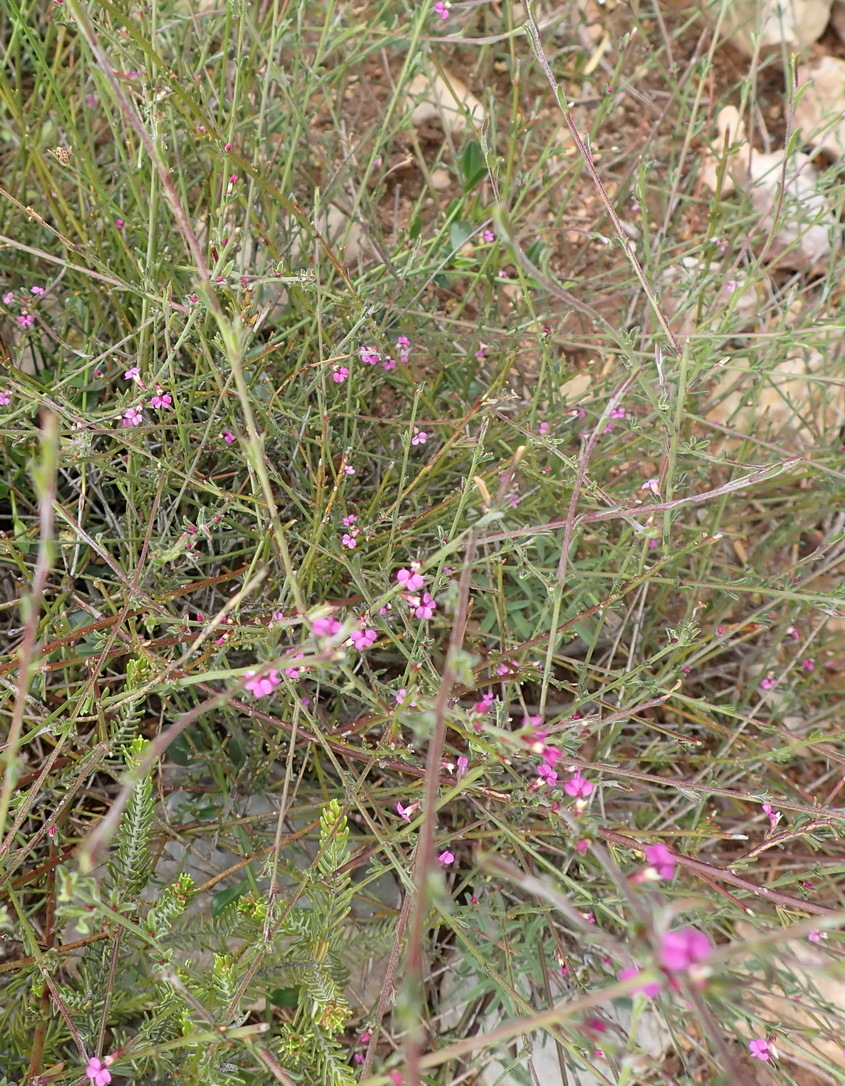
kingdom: Plantae
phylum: Tracheophyta
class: Magnoliopsida
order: Fabales
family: Polygalaceae
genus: Muraltia
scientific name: Muraltia dispersa
